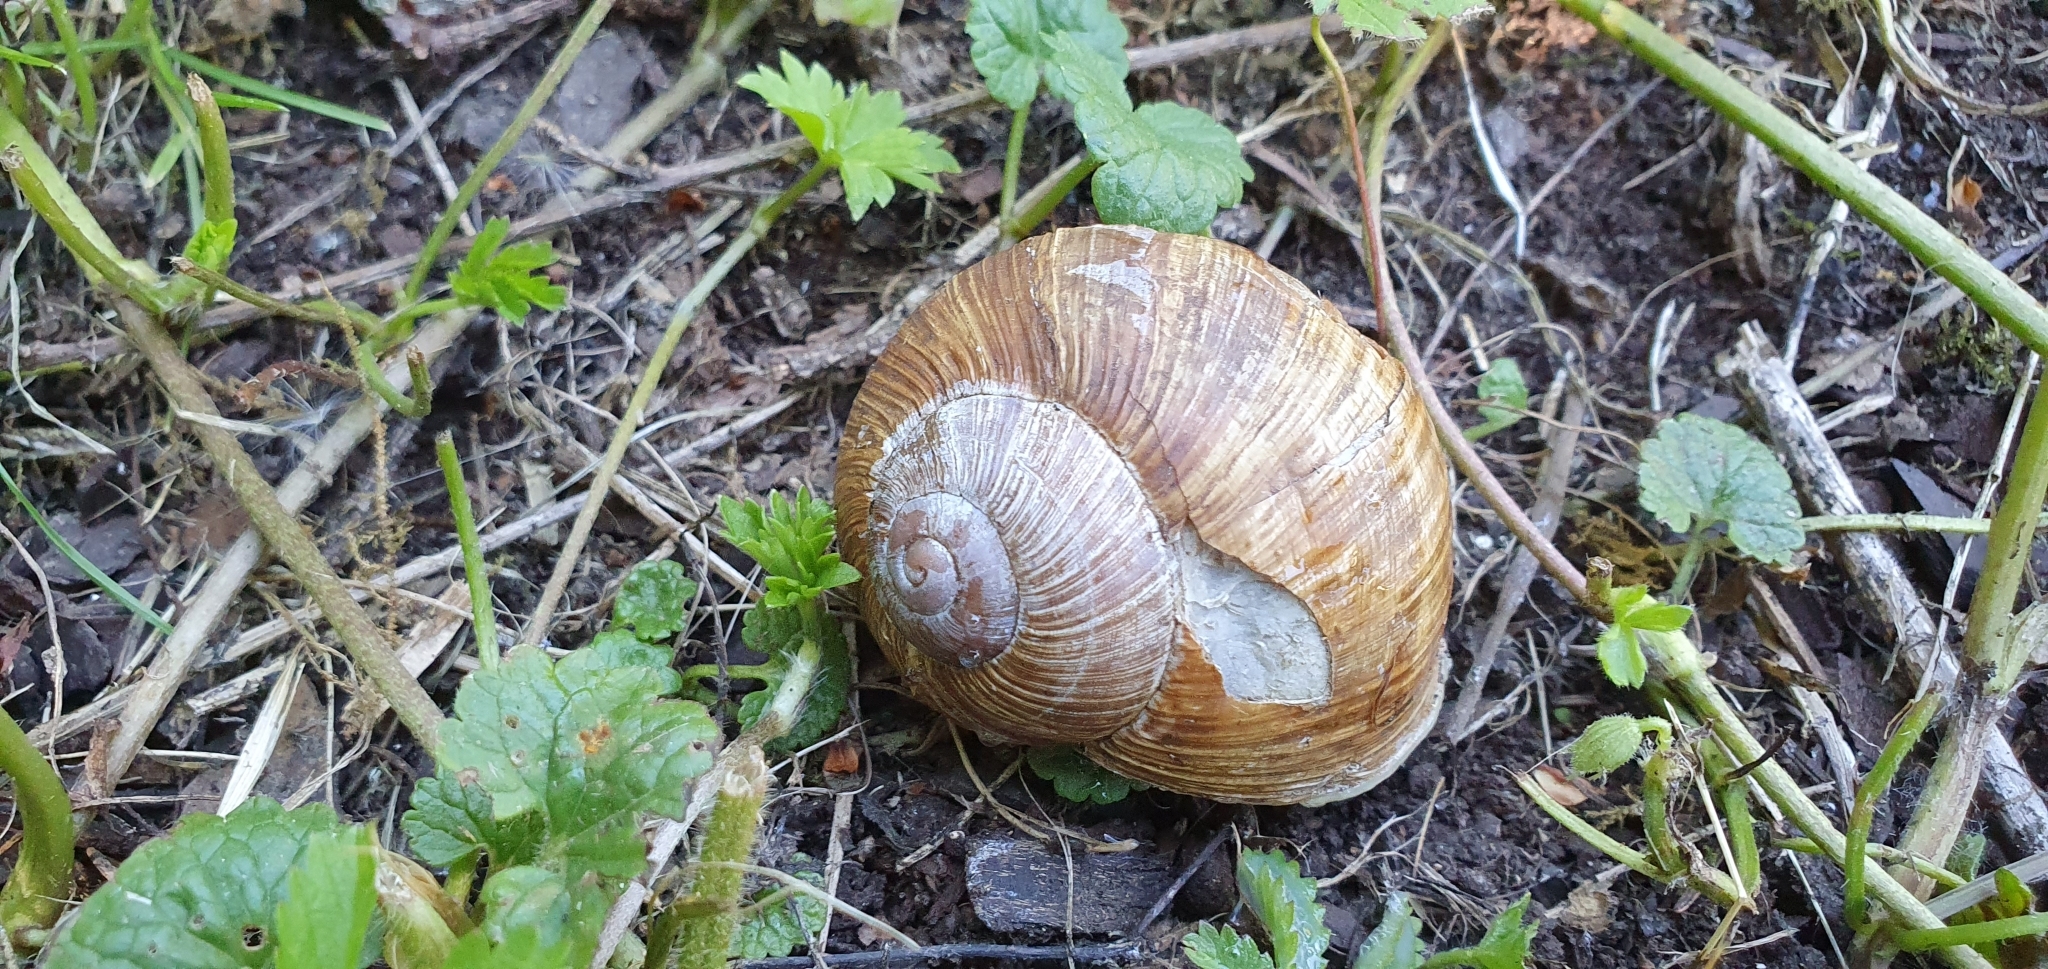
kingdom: Animalia
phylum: Mollusca
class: Gastropoda
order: Stylommatophora
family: Helicidae
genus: Helix
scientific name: Helix pomatia
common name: Roman snail
